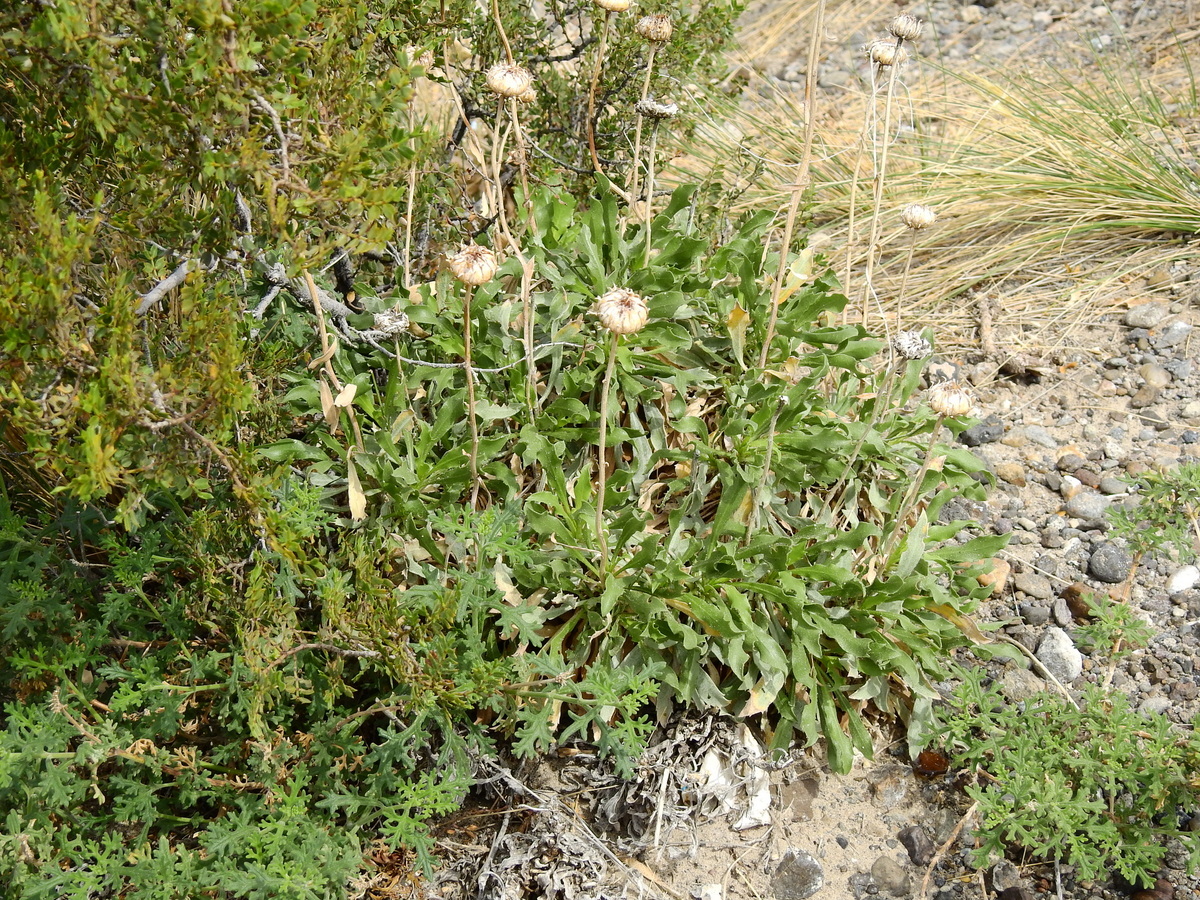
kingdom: Plantae
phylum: Tracheophyta
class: Magnoliopsida
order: Asterales
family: Asteraceae
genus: Grindelia
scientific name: Grindelia chiloensis
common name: Shrubby gumweed
